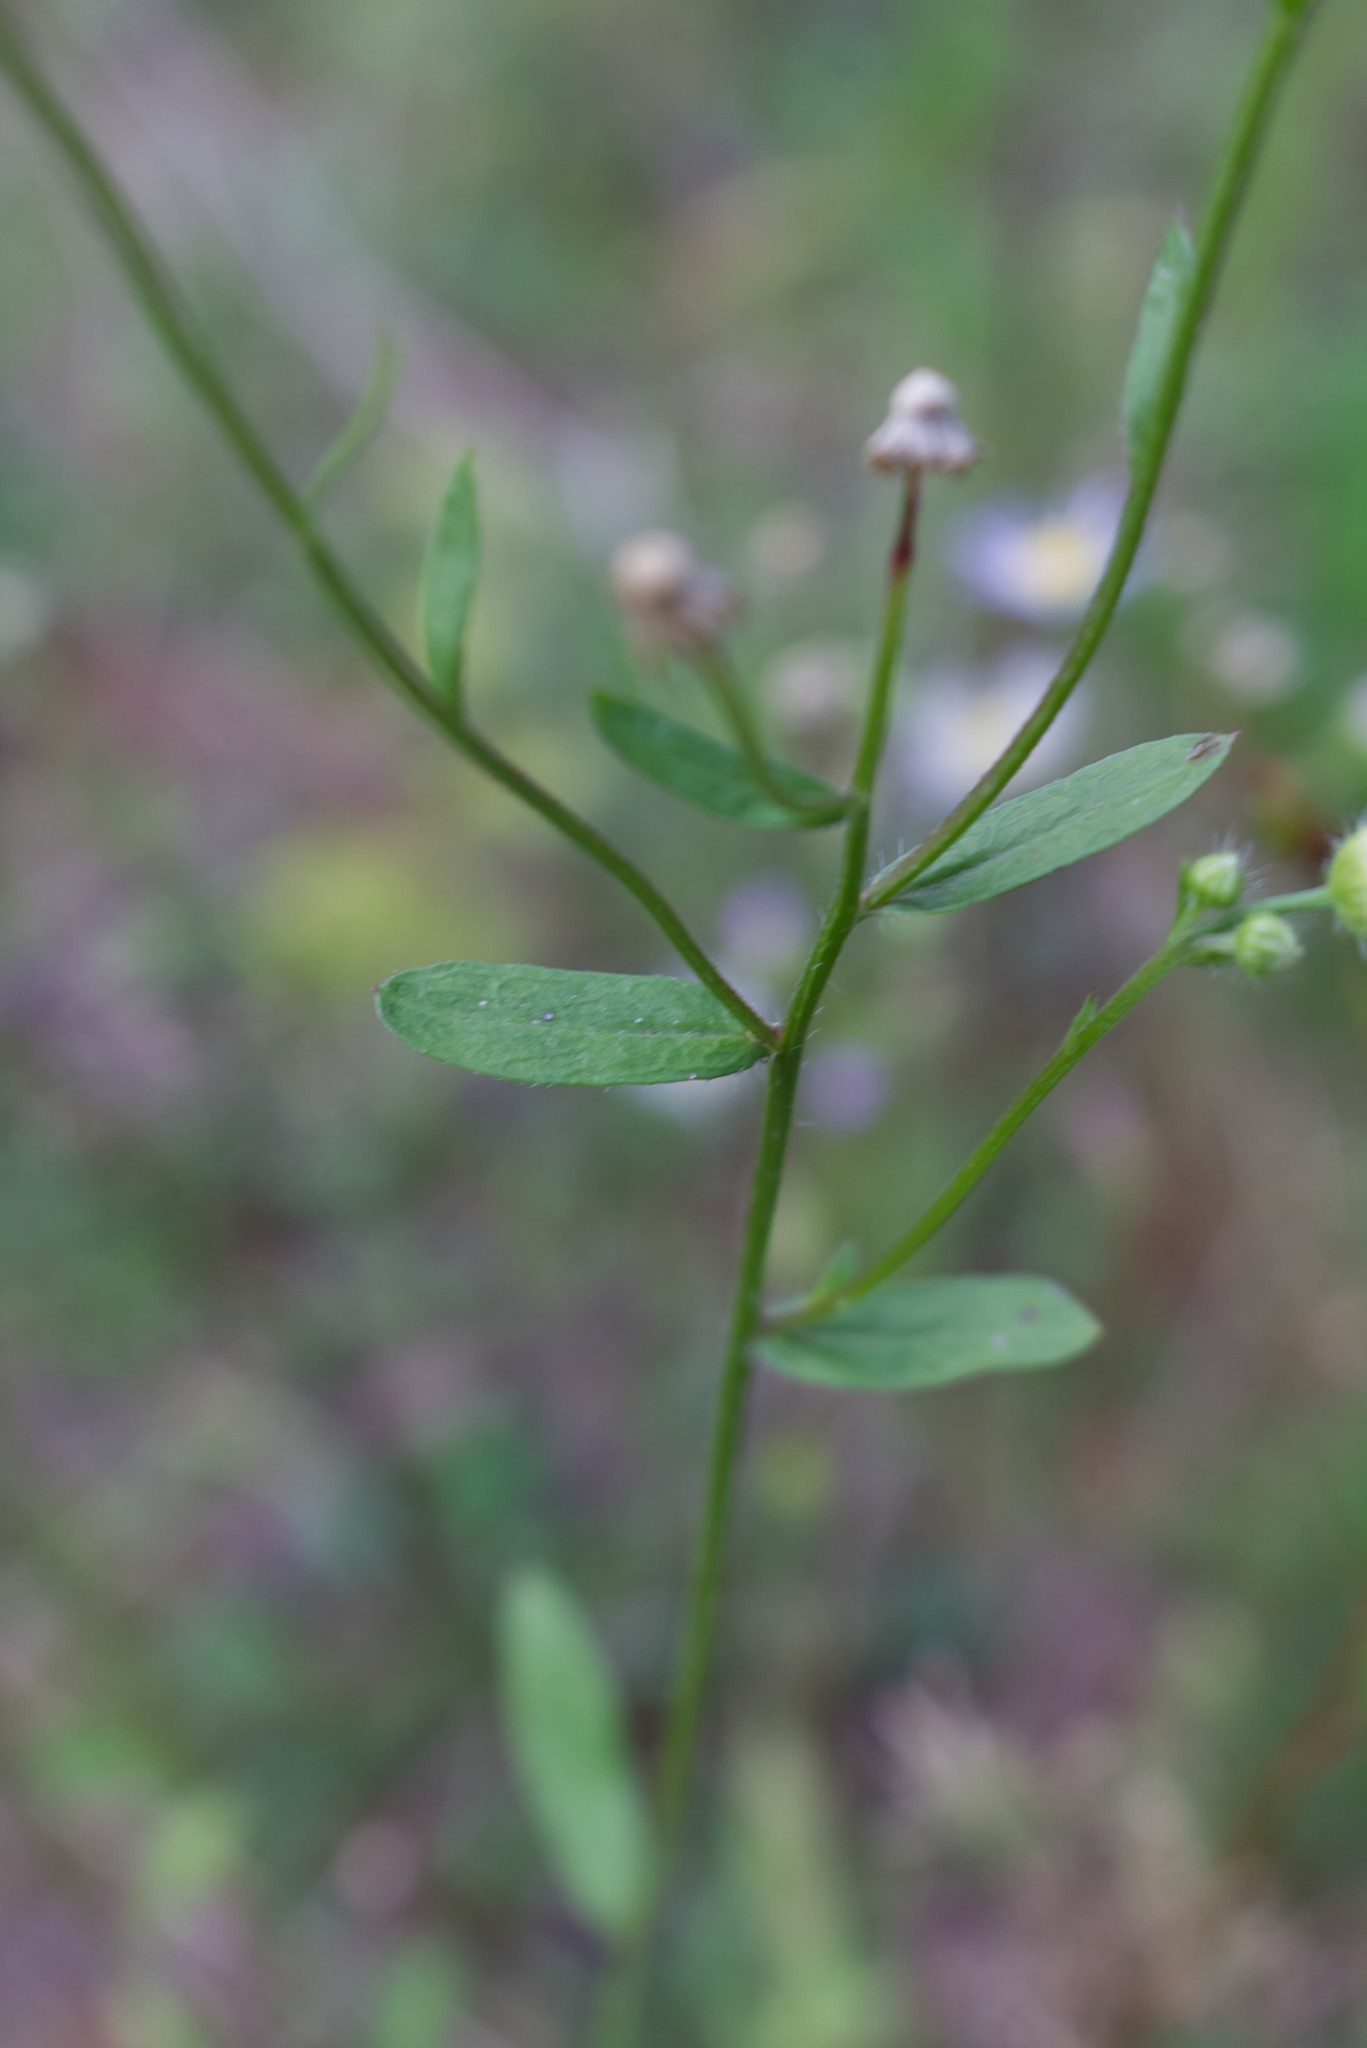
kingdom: Plantae
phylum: Tracheophyta
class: Magnoliopsida
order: Asterales
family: Asteraceae
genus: Erigeron
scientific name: Erigeron annuus
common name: Tall fleabane
